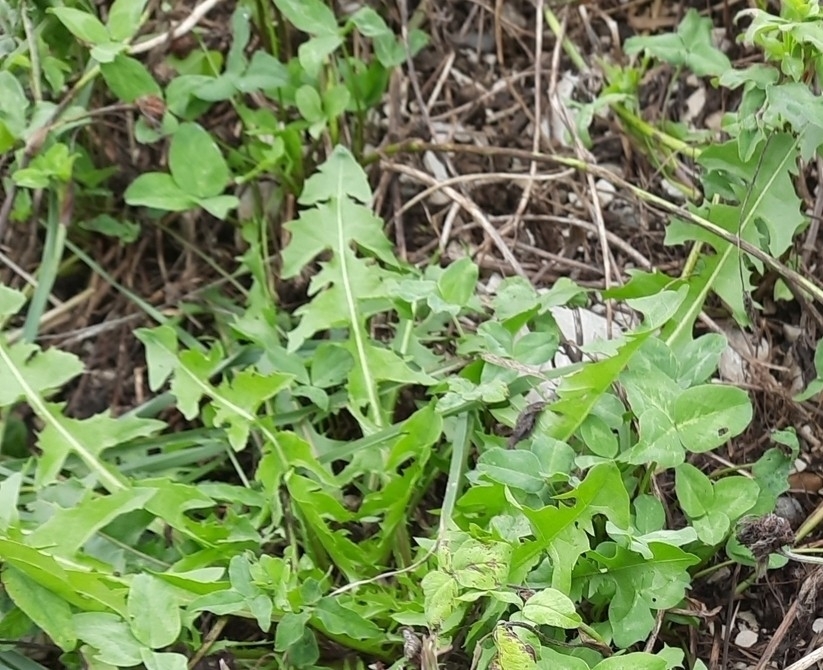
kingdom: Plantae
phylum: Tracheophyta
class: Magnoliopsida
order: Asterales
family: Asteraceae
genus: Taraxacum
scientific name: Taraxacum officinale
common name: Common dandelion
